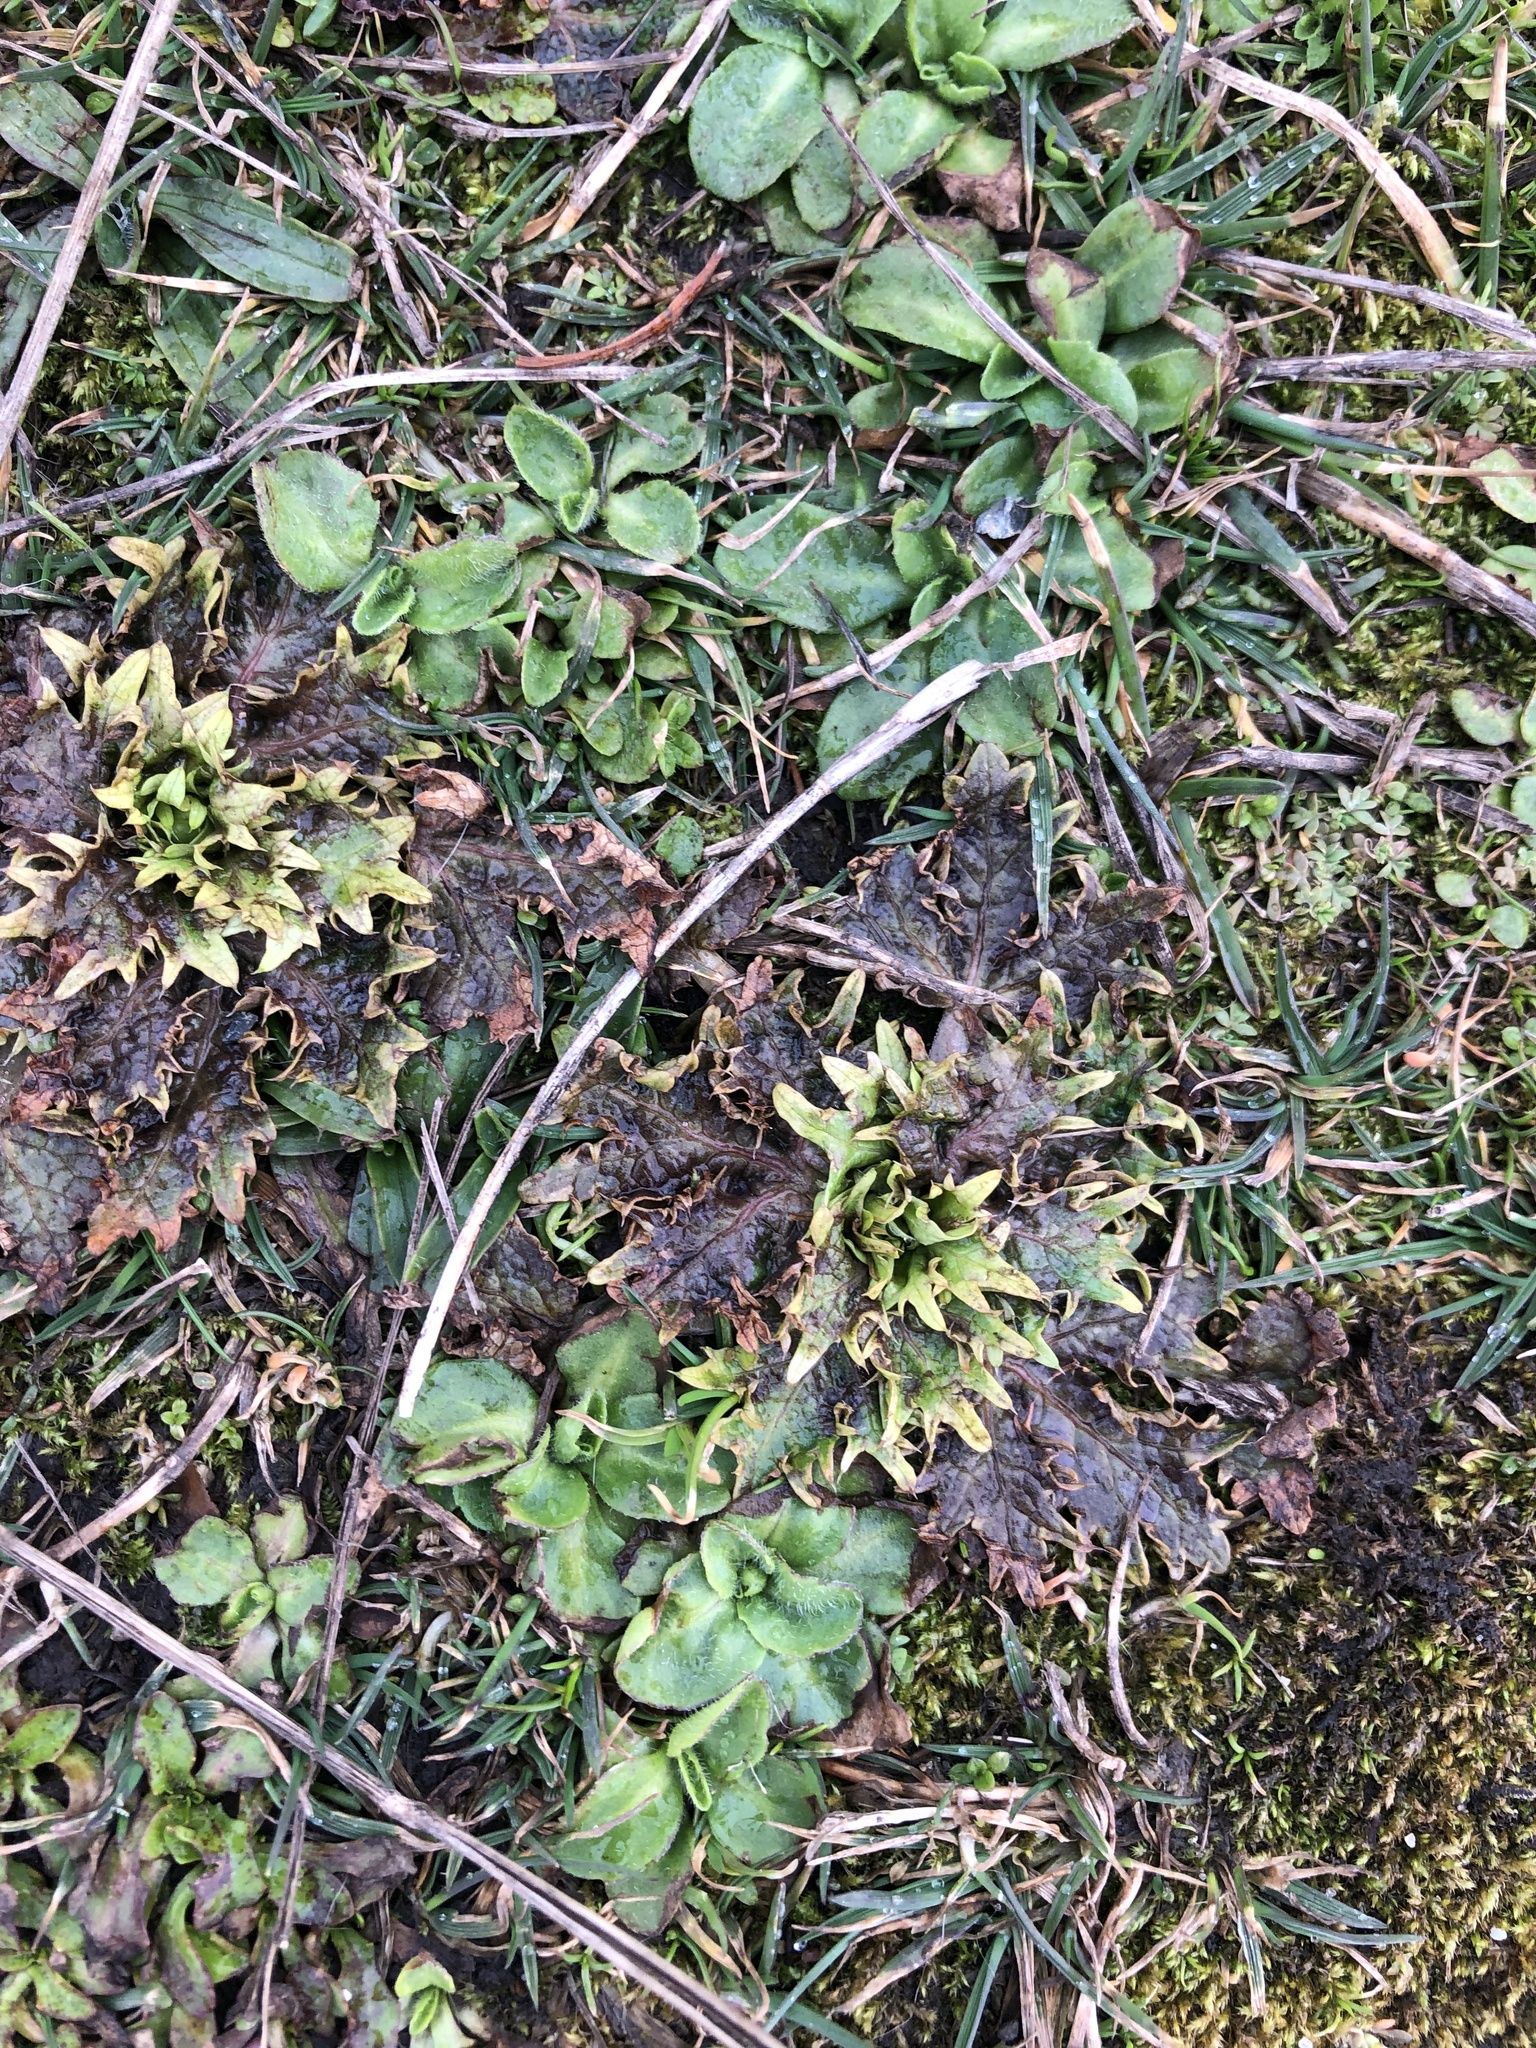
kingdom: Plantae
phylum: Tracheophyta
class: Magnoliopsida
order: Apiales
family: Apiaceae
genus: Sanicula
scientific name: Sanicula arctopoides
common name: Footsteps-of-spring
